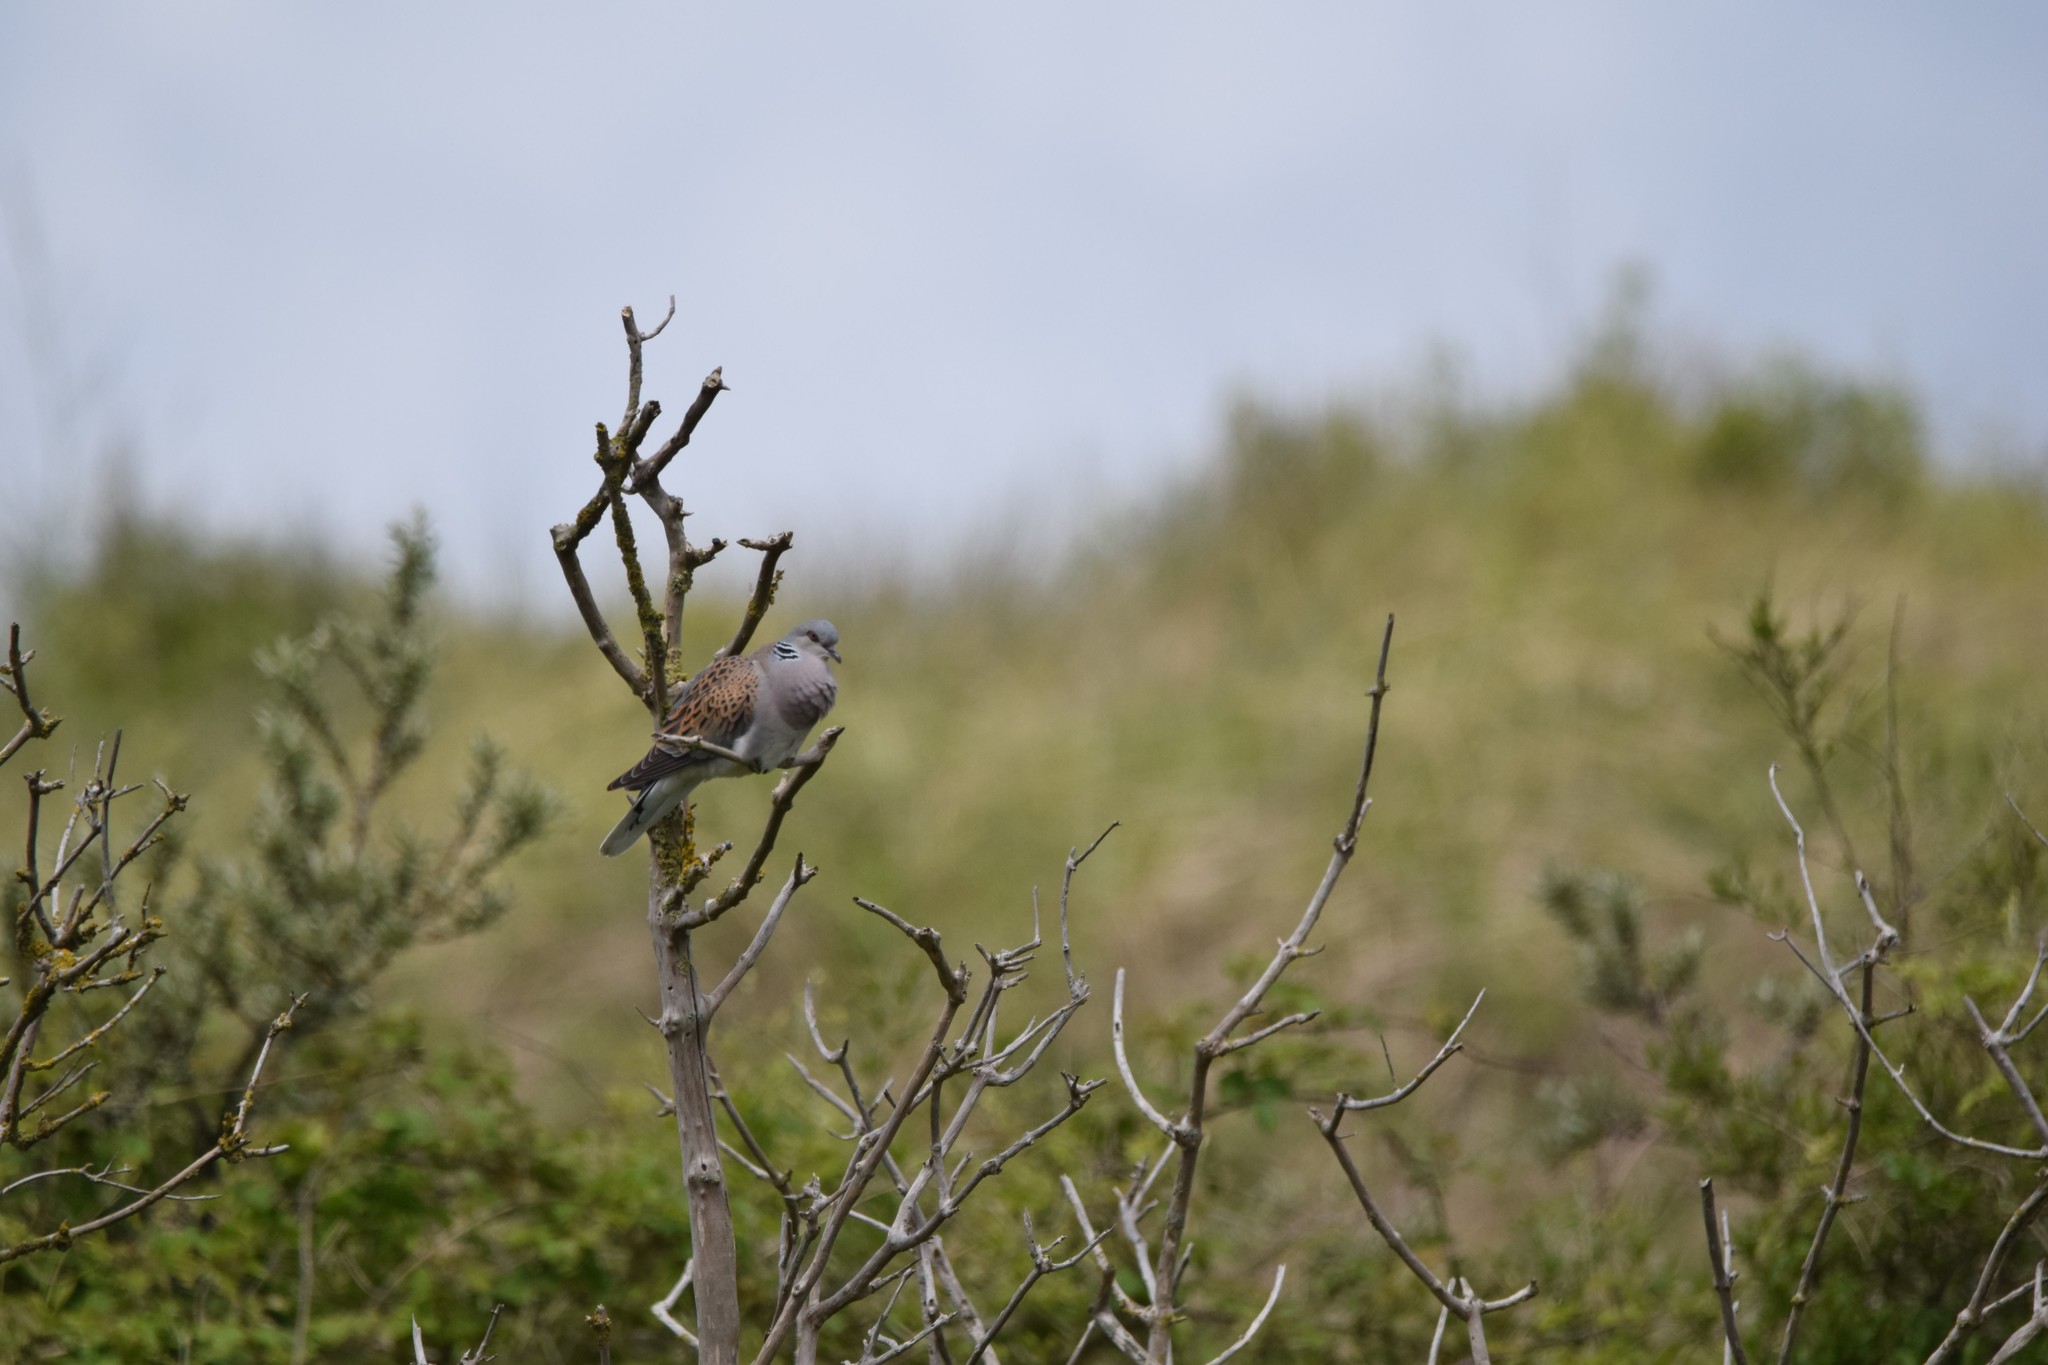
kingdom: Animalia
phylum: Chordata
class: Aves
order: Columbiformes
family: Columbidae
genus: Streptopelia
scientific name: Streptopelia turtur
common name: European turtle dove
